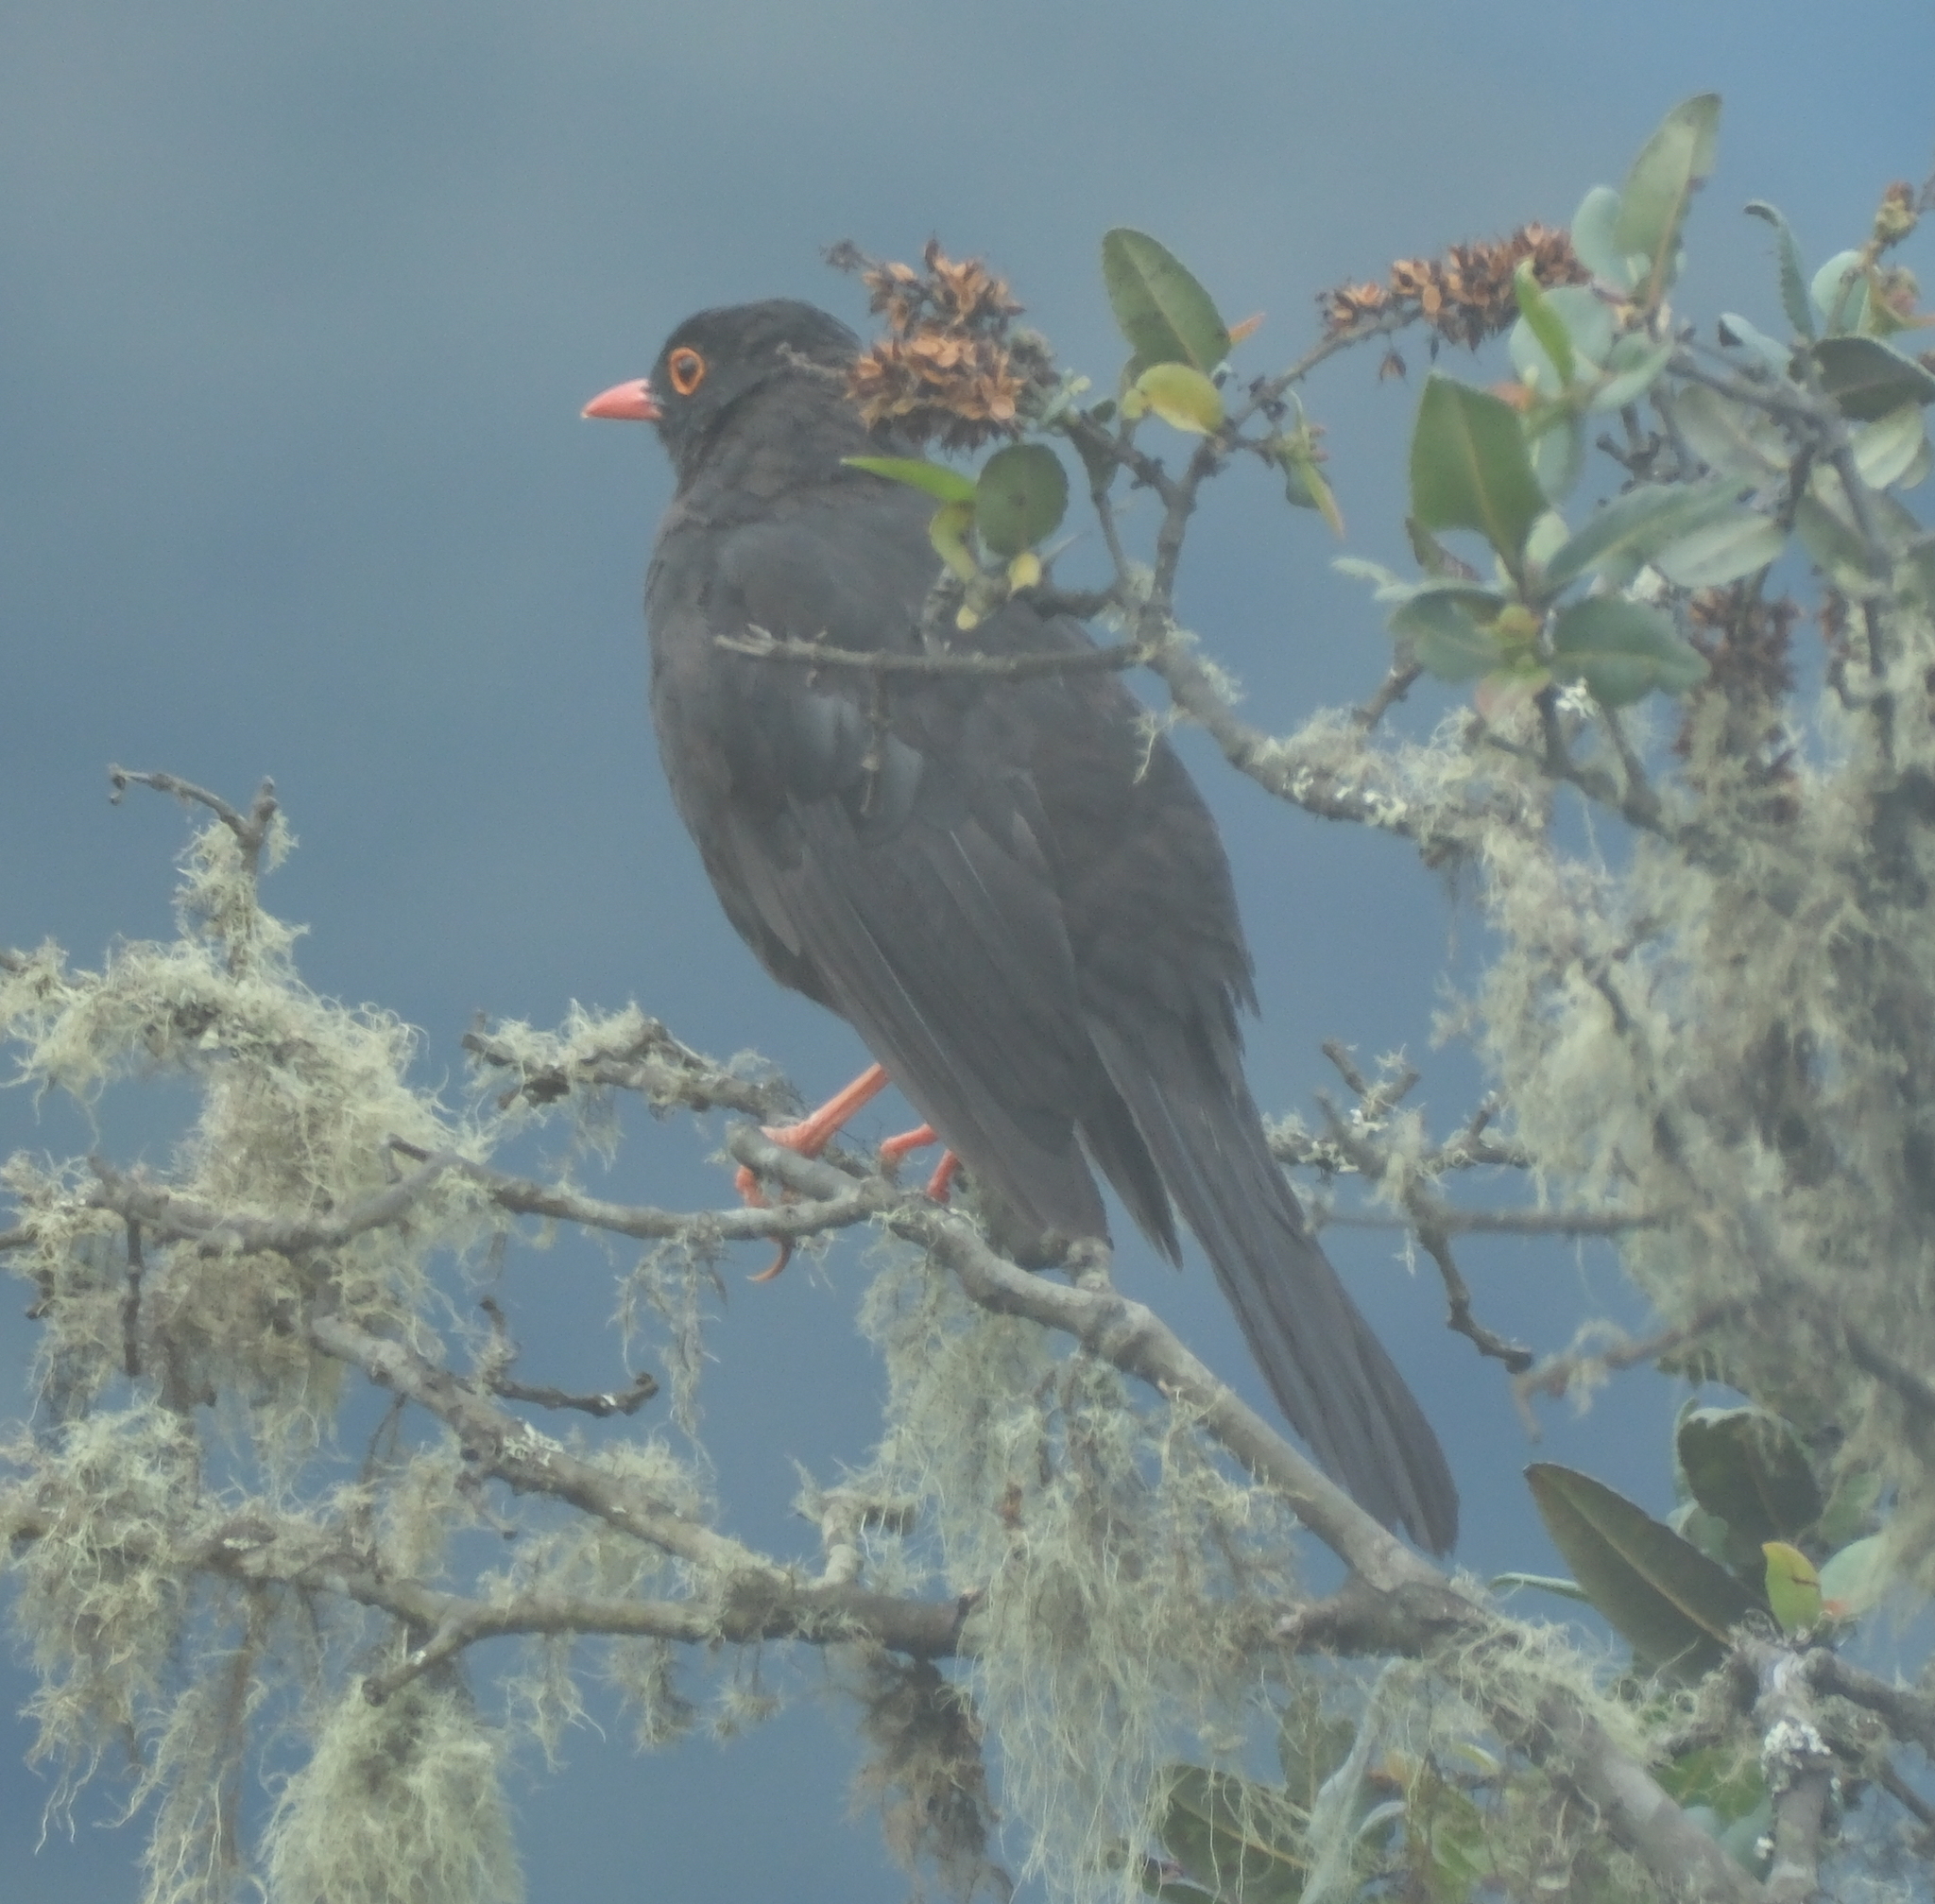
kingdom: Animalia
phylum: Chordata
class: Aves
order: Passeriformes
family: Turdidae
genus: Turdus
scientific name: Turdus fuscater
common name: Great thrush
